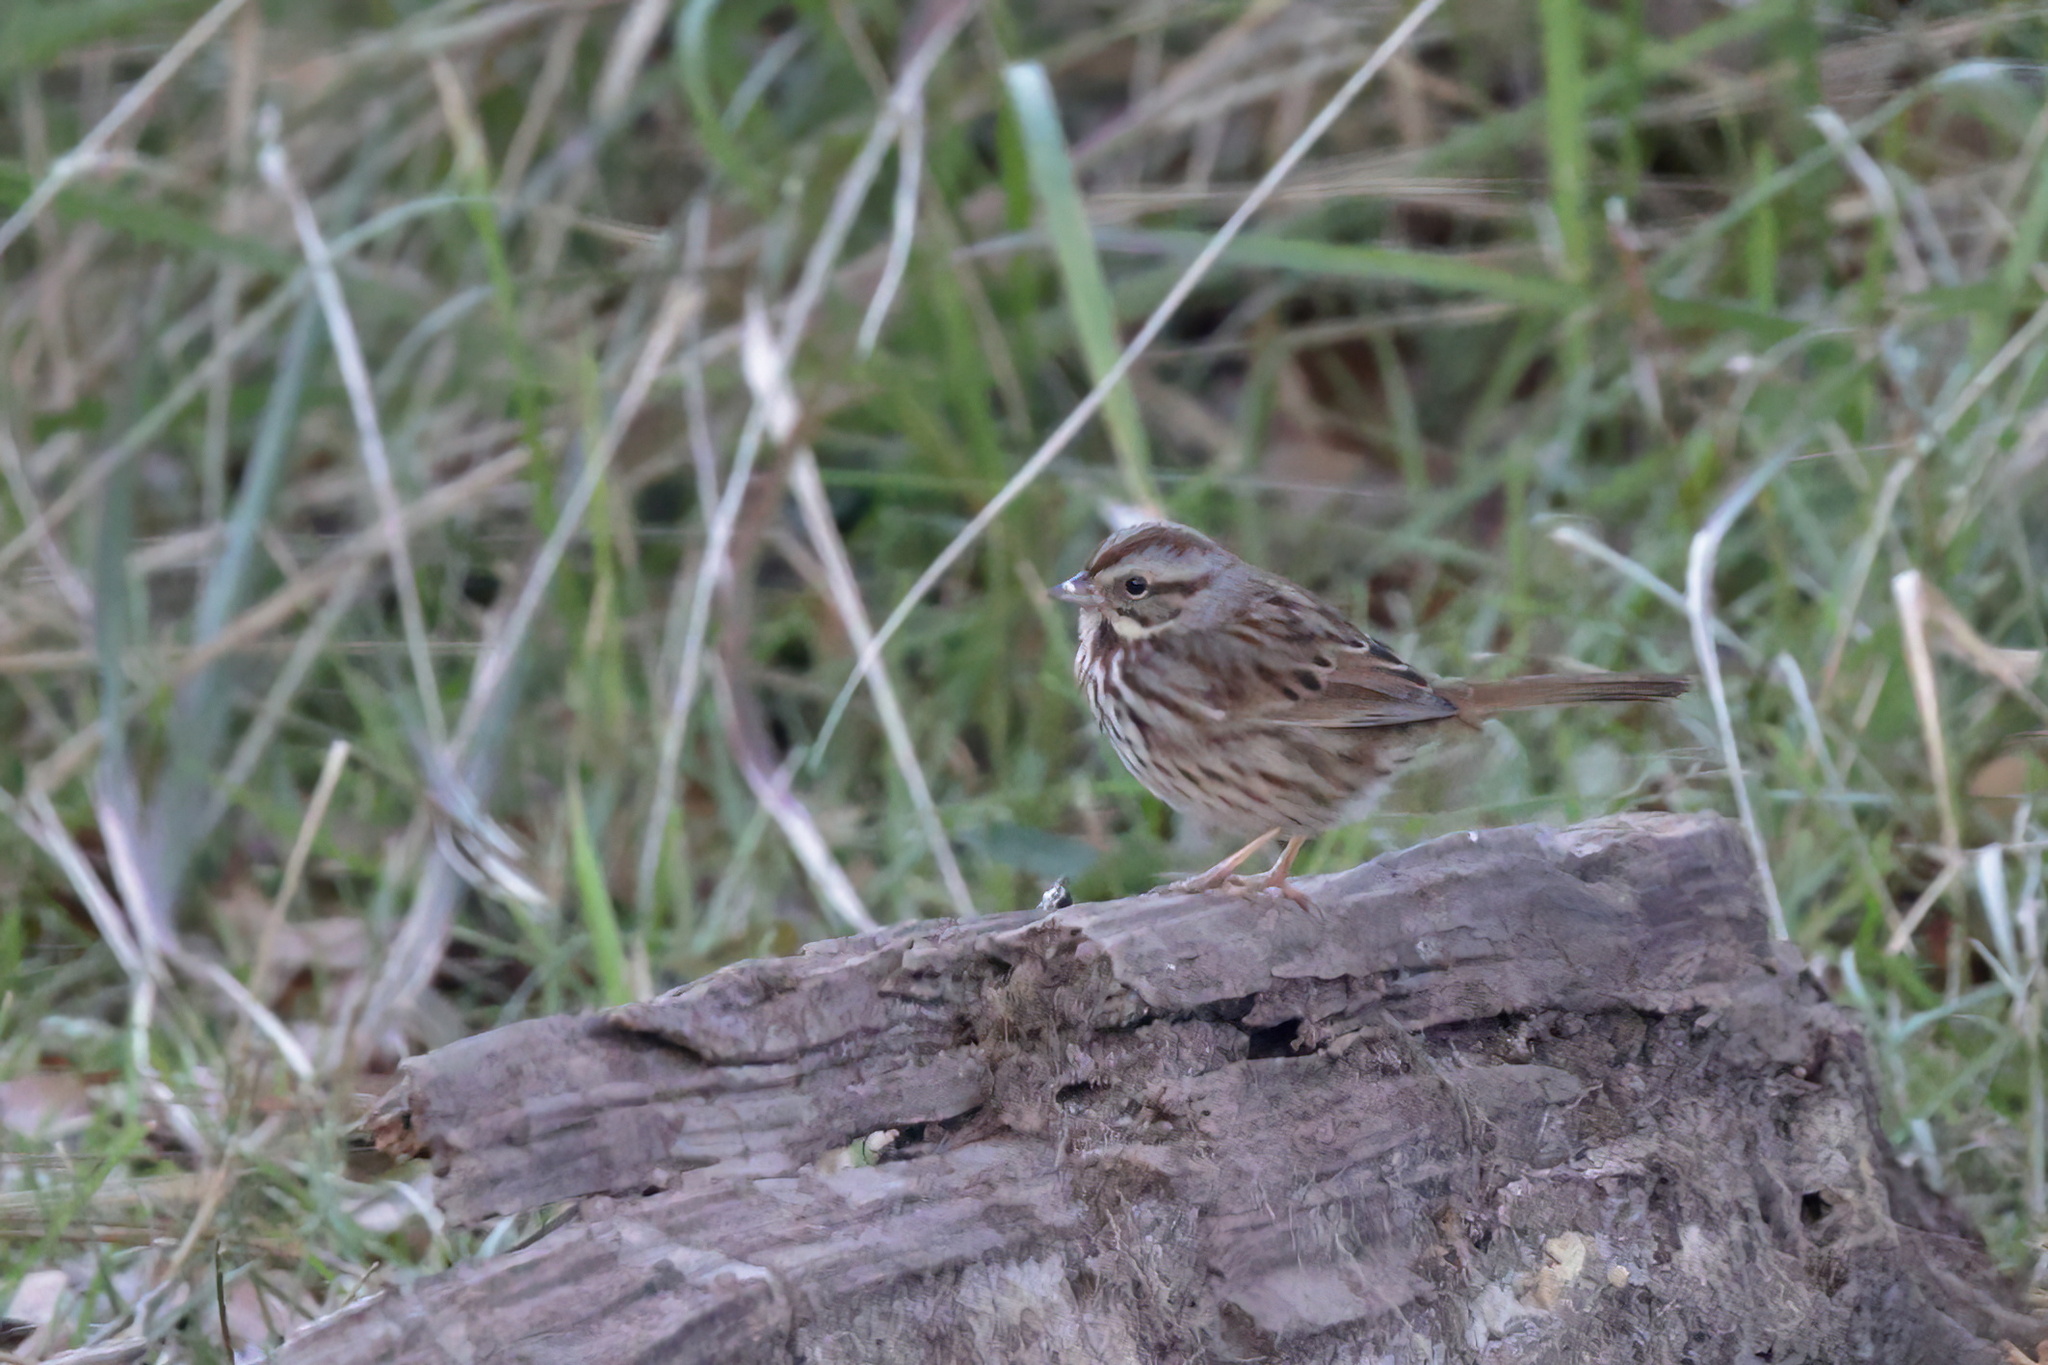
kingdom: Animalia
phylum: Chordata
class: Aves
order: Passeriformes
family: Passerellidae
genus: Melospiza
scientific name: Melospiza melodia
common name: Song sparrow
